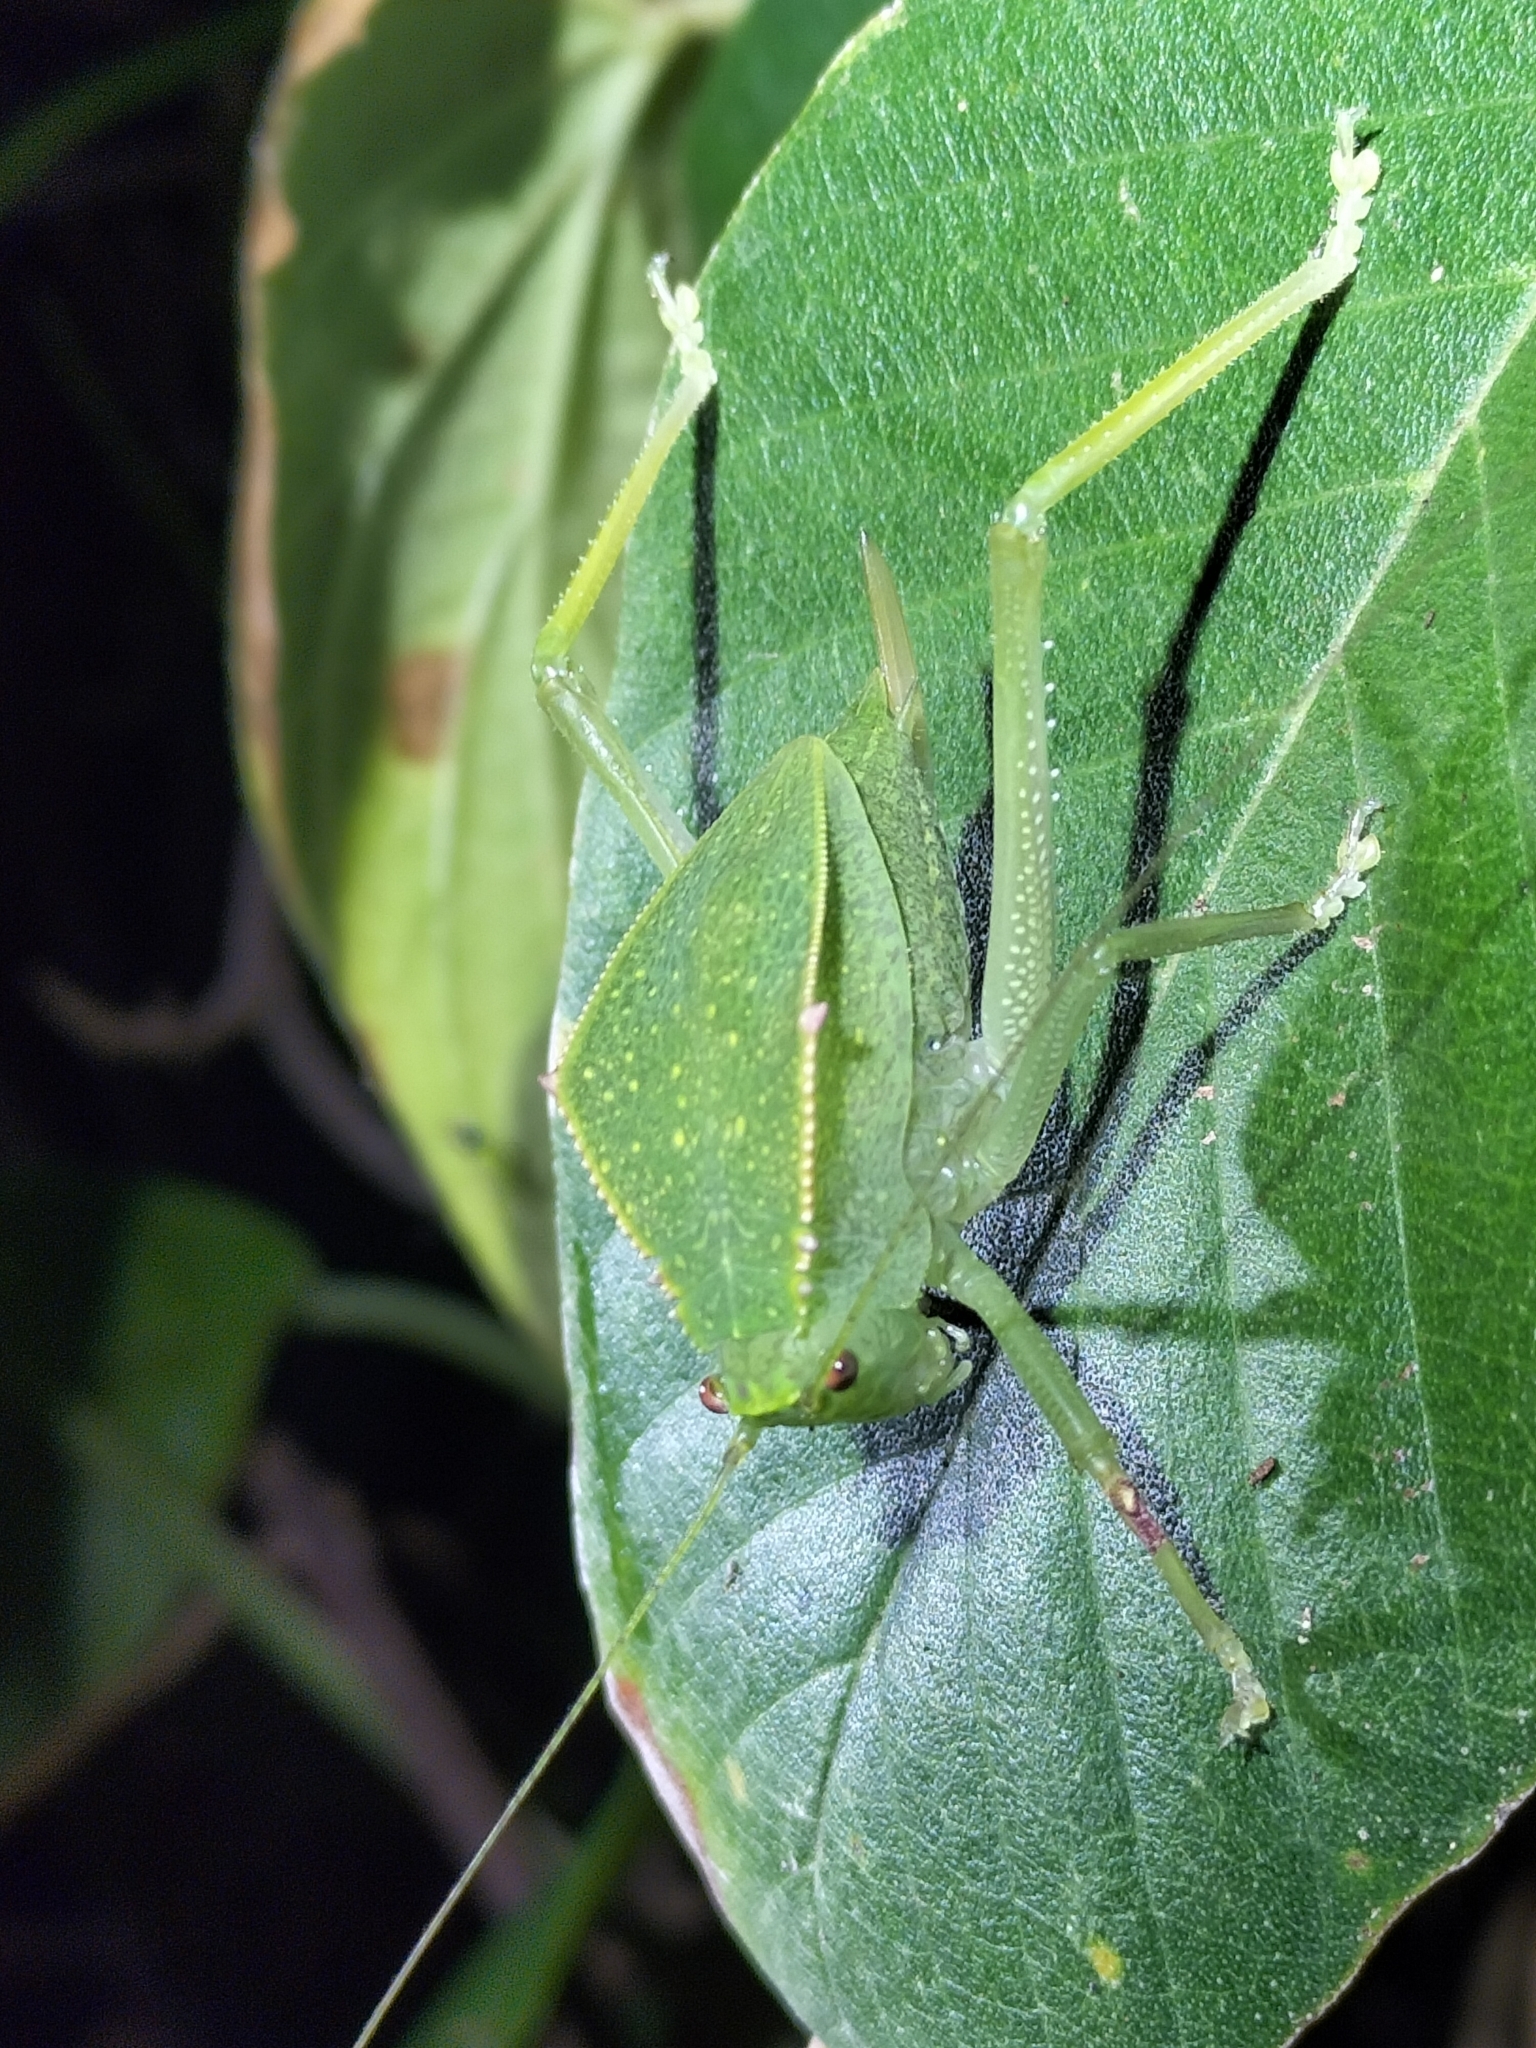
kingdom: Animalia
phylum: Arthropoda
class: Insecta
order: Orthoptera
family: Tettigoniidae
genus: Phyllophorella
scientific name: Phyllophorella queenslandica
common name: Queensland small hooded katydid
